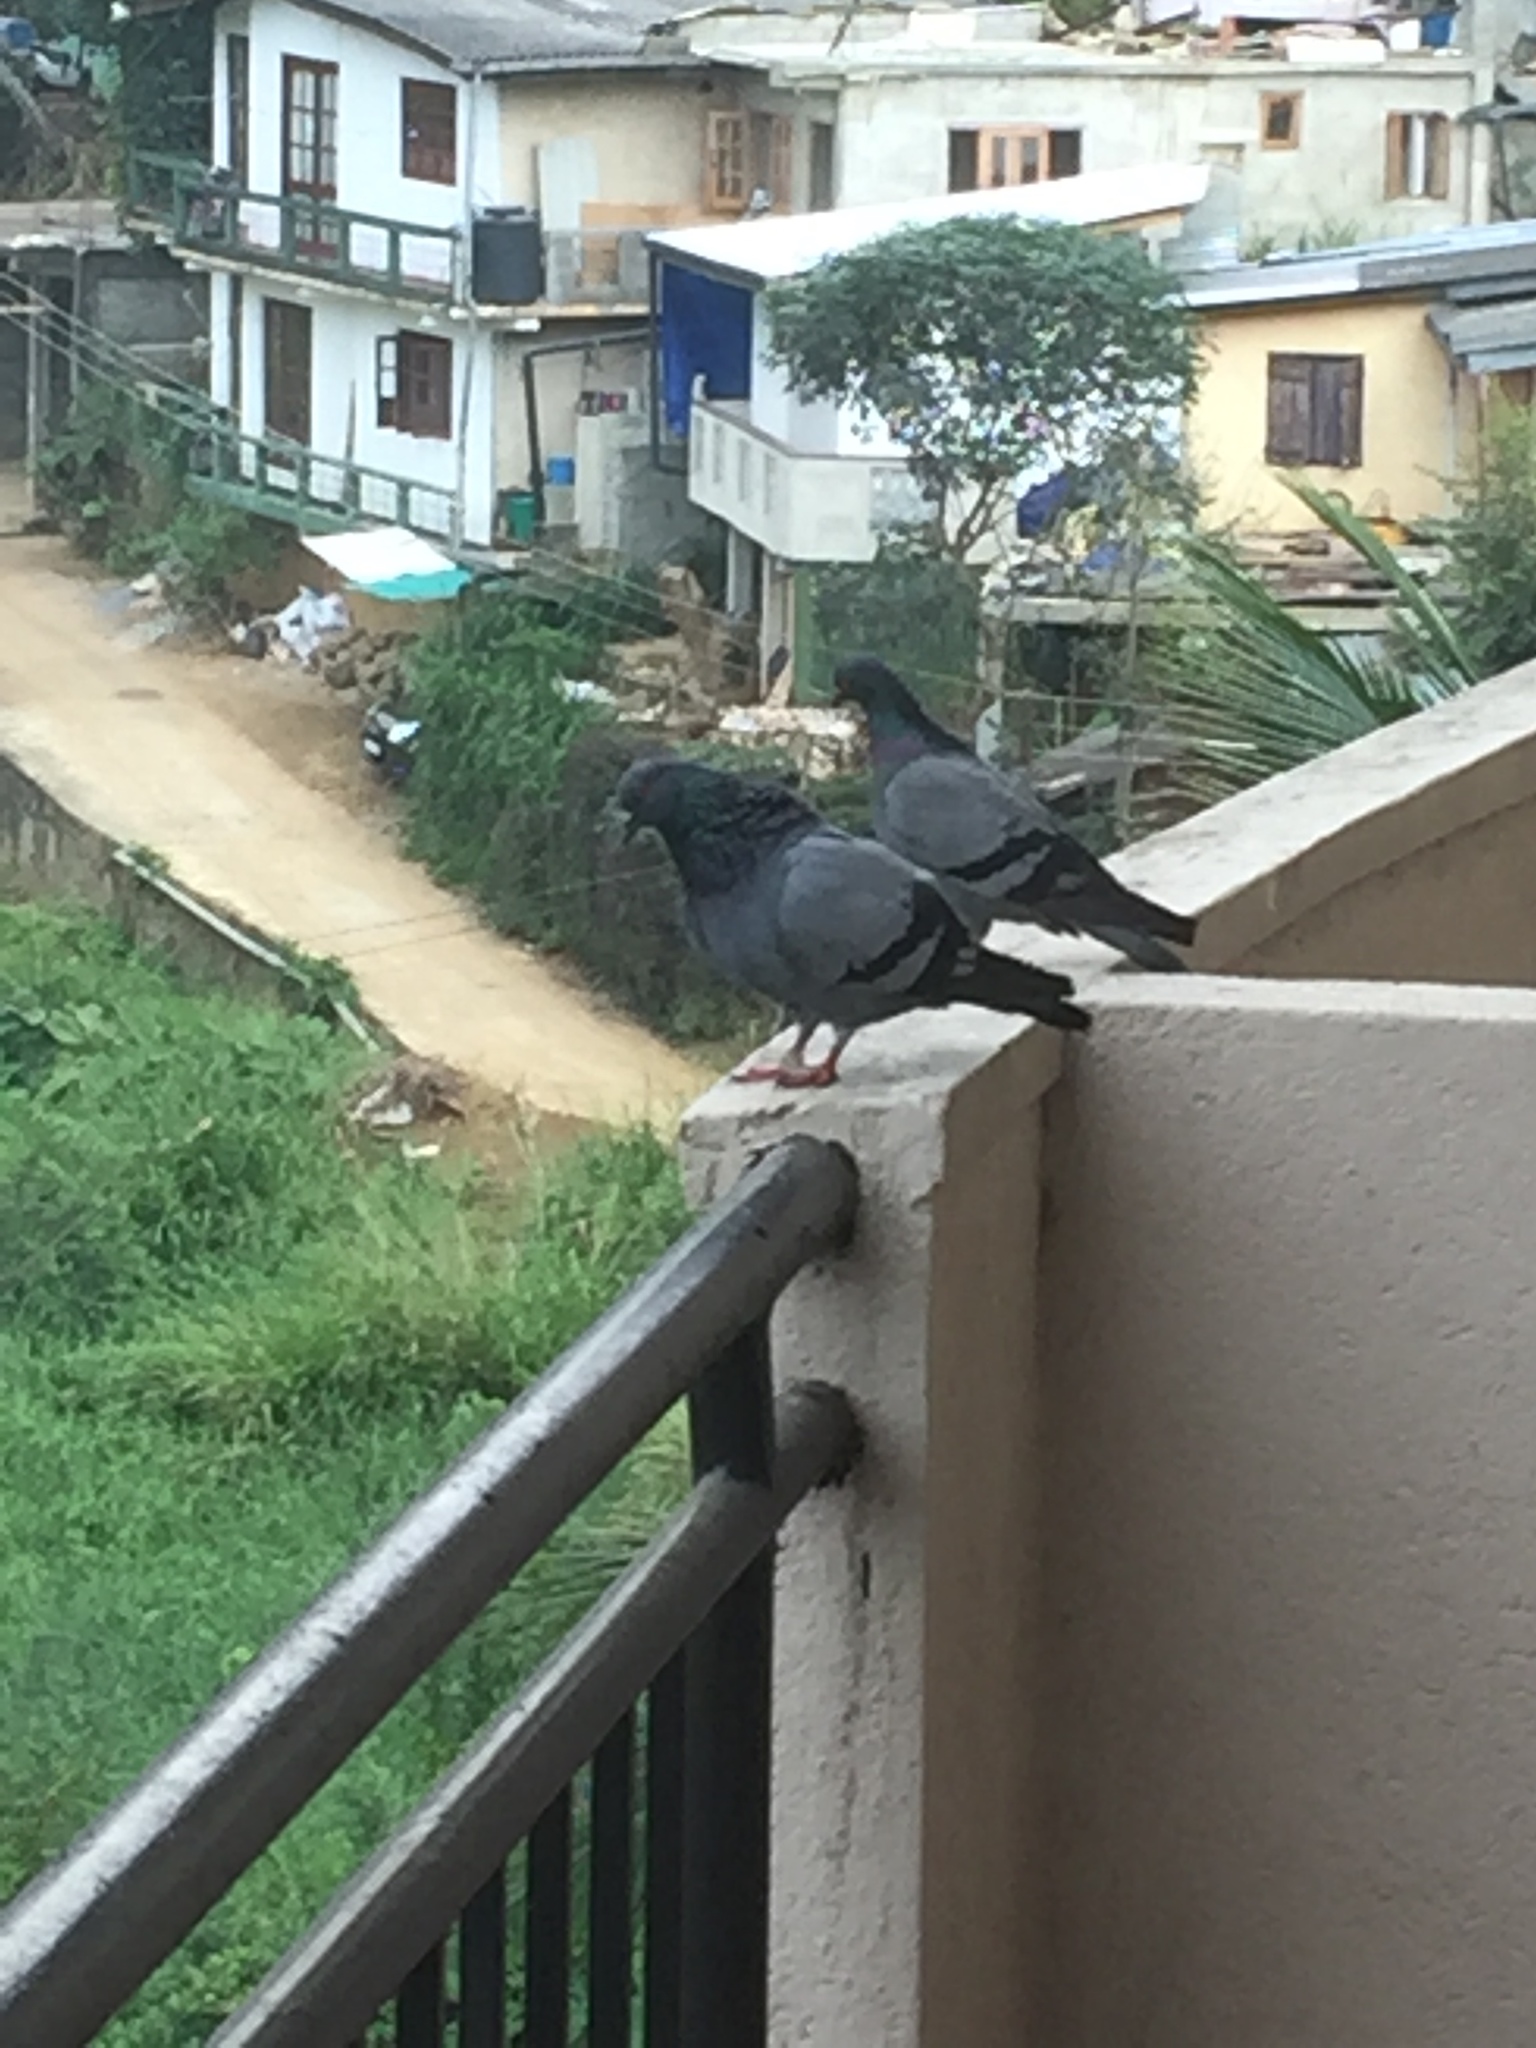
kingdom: Animalia
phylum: Chordata
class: Aves
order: Columbiformes
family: Columbidae
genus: Columba
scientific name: Columba livia
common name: Rock pigeon
